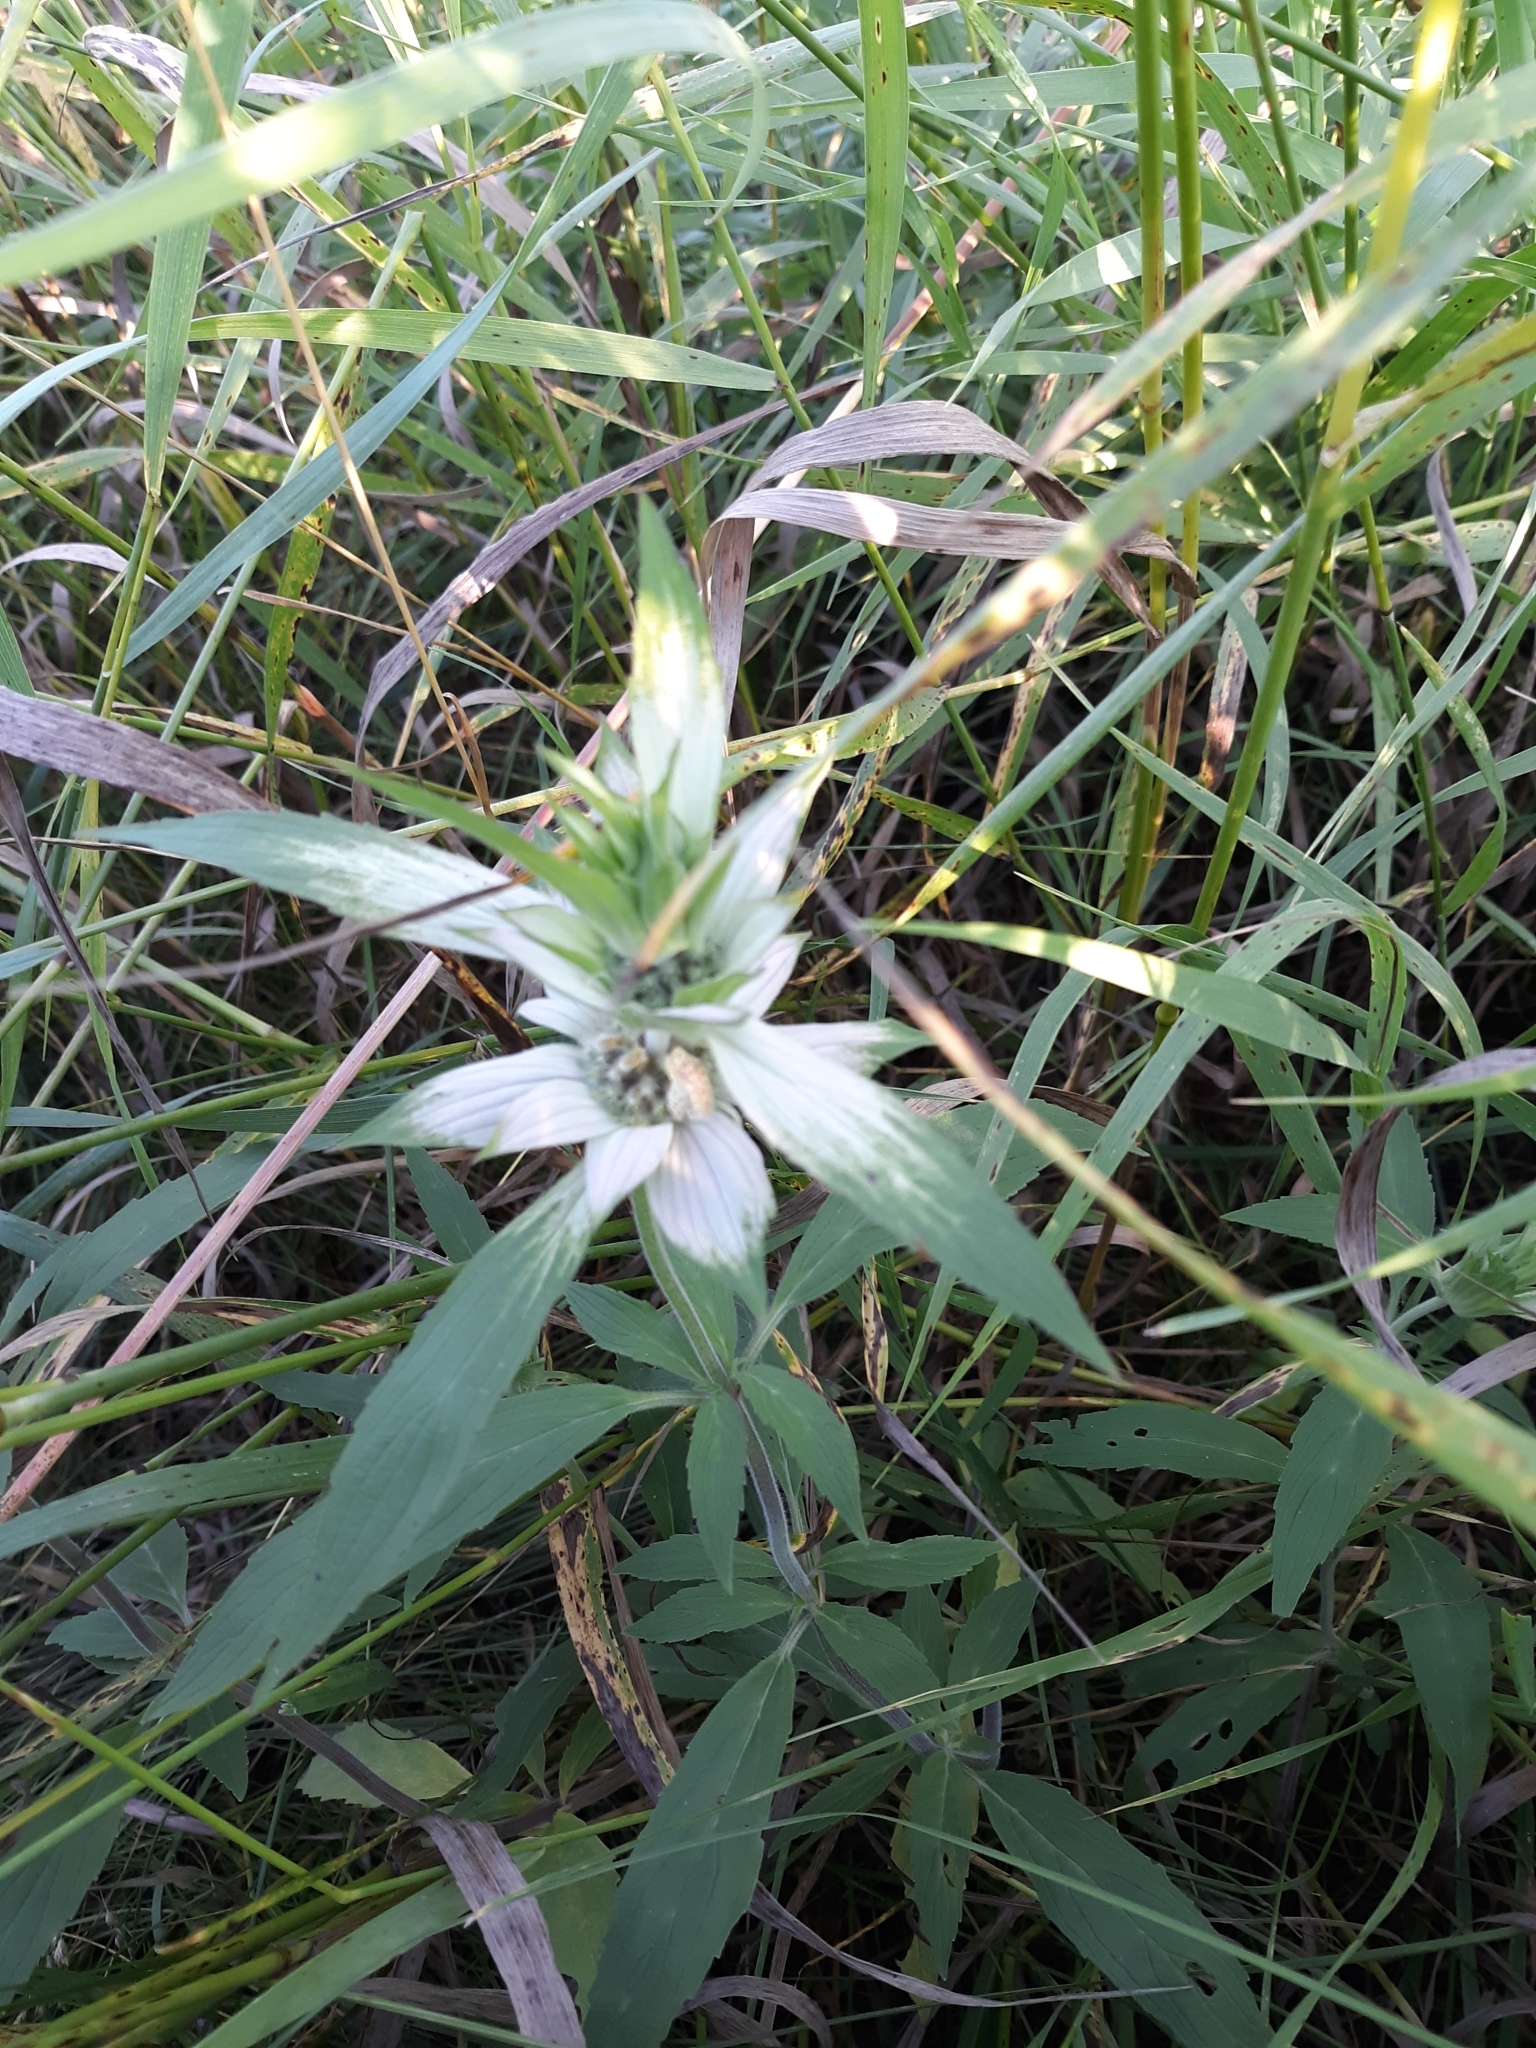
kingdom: Plantae
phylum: Tracheophyta
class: Magnoliopsida
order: Lamiales
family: Lamiaceae
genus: Monarda
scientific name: Monarda punctata
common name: Dotted monarda
